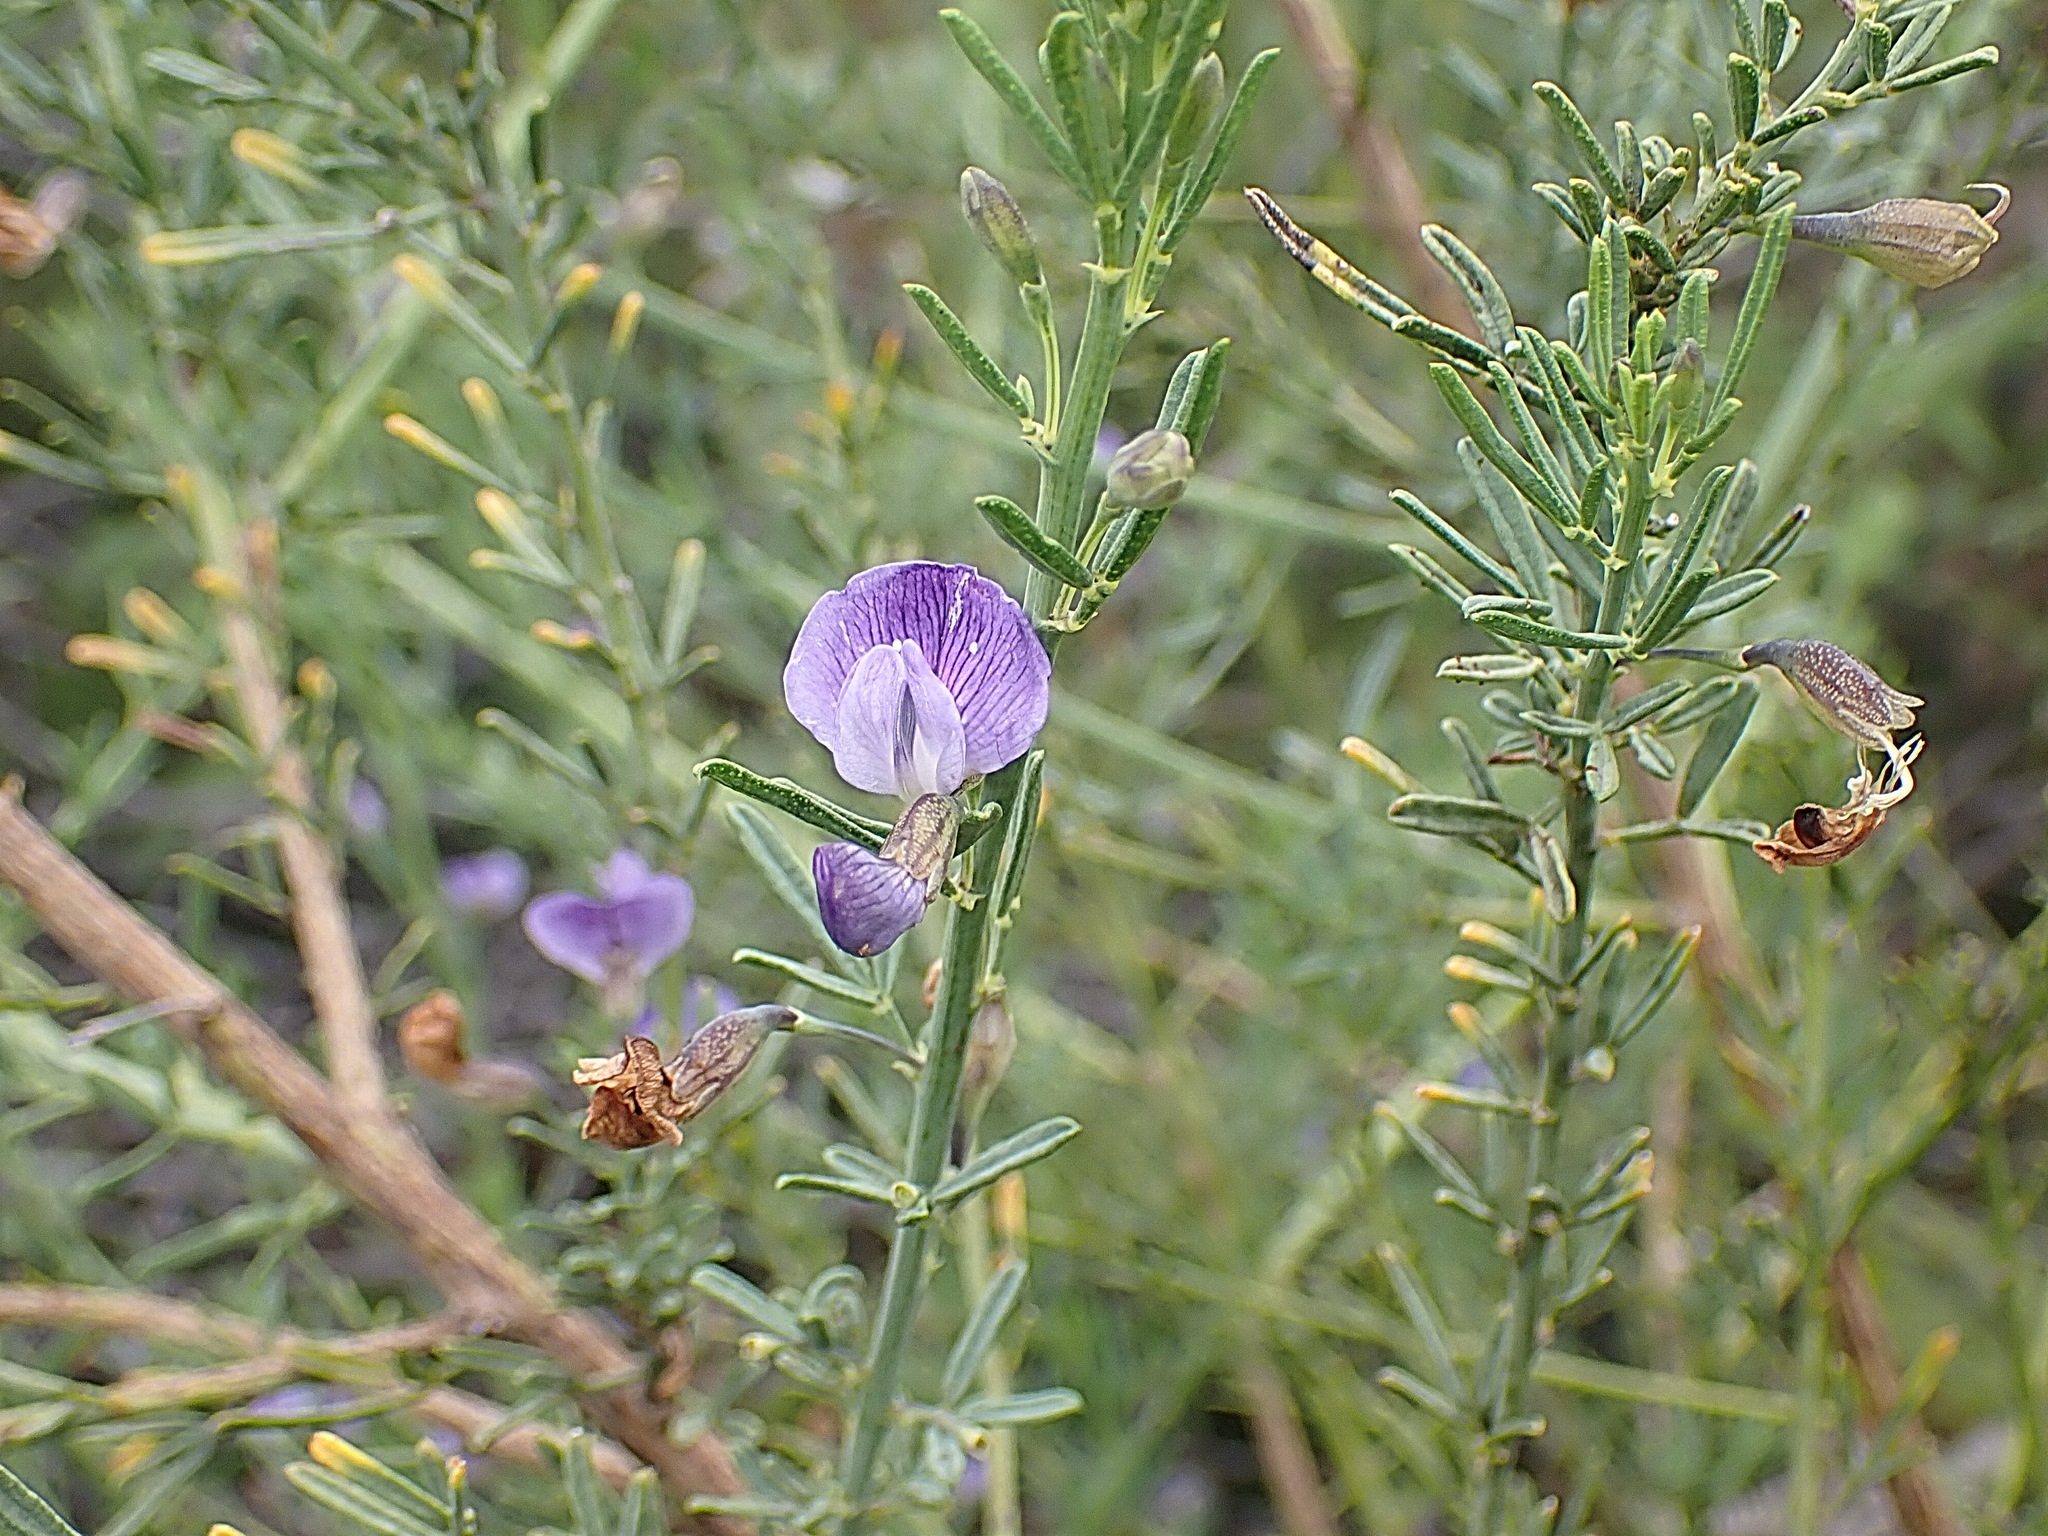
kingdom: Plantae
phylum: Tracheophyta
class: Magnoliopsida
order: Fabales
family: Fabaceae
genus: Psoralea
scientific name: Psoralea axillaris
